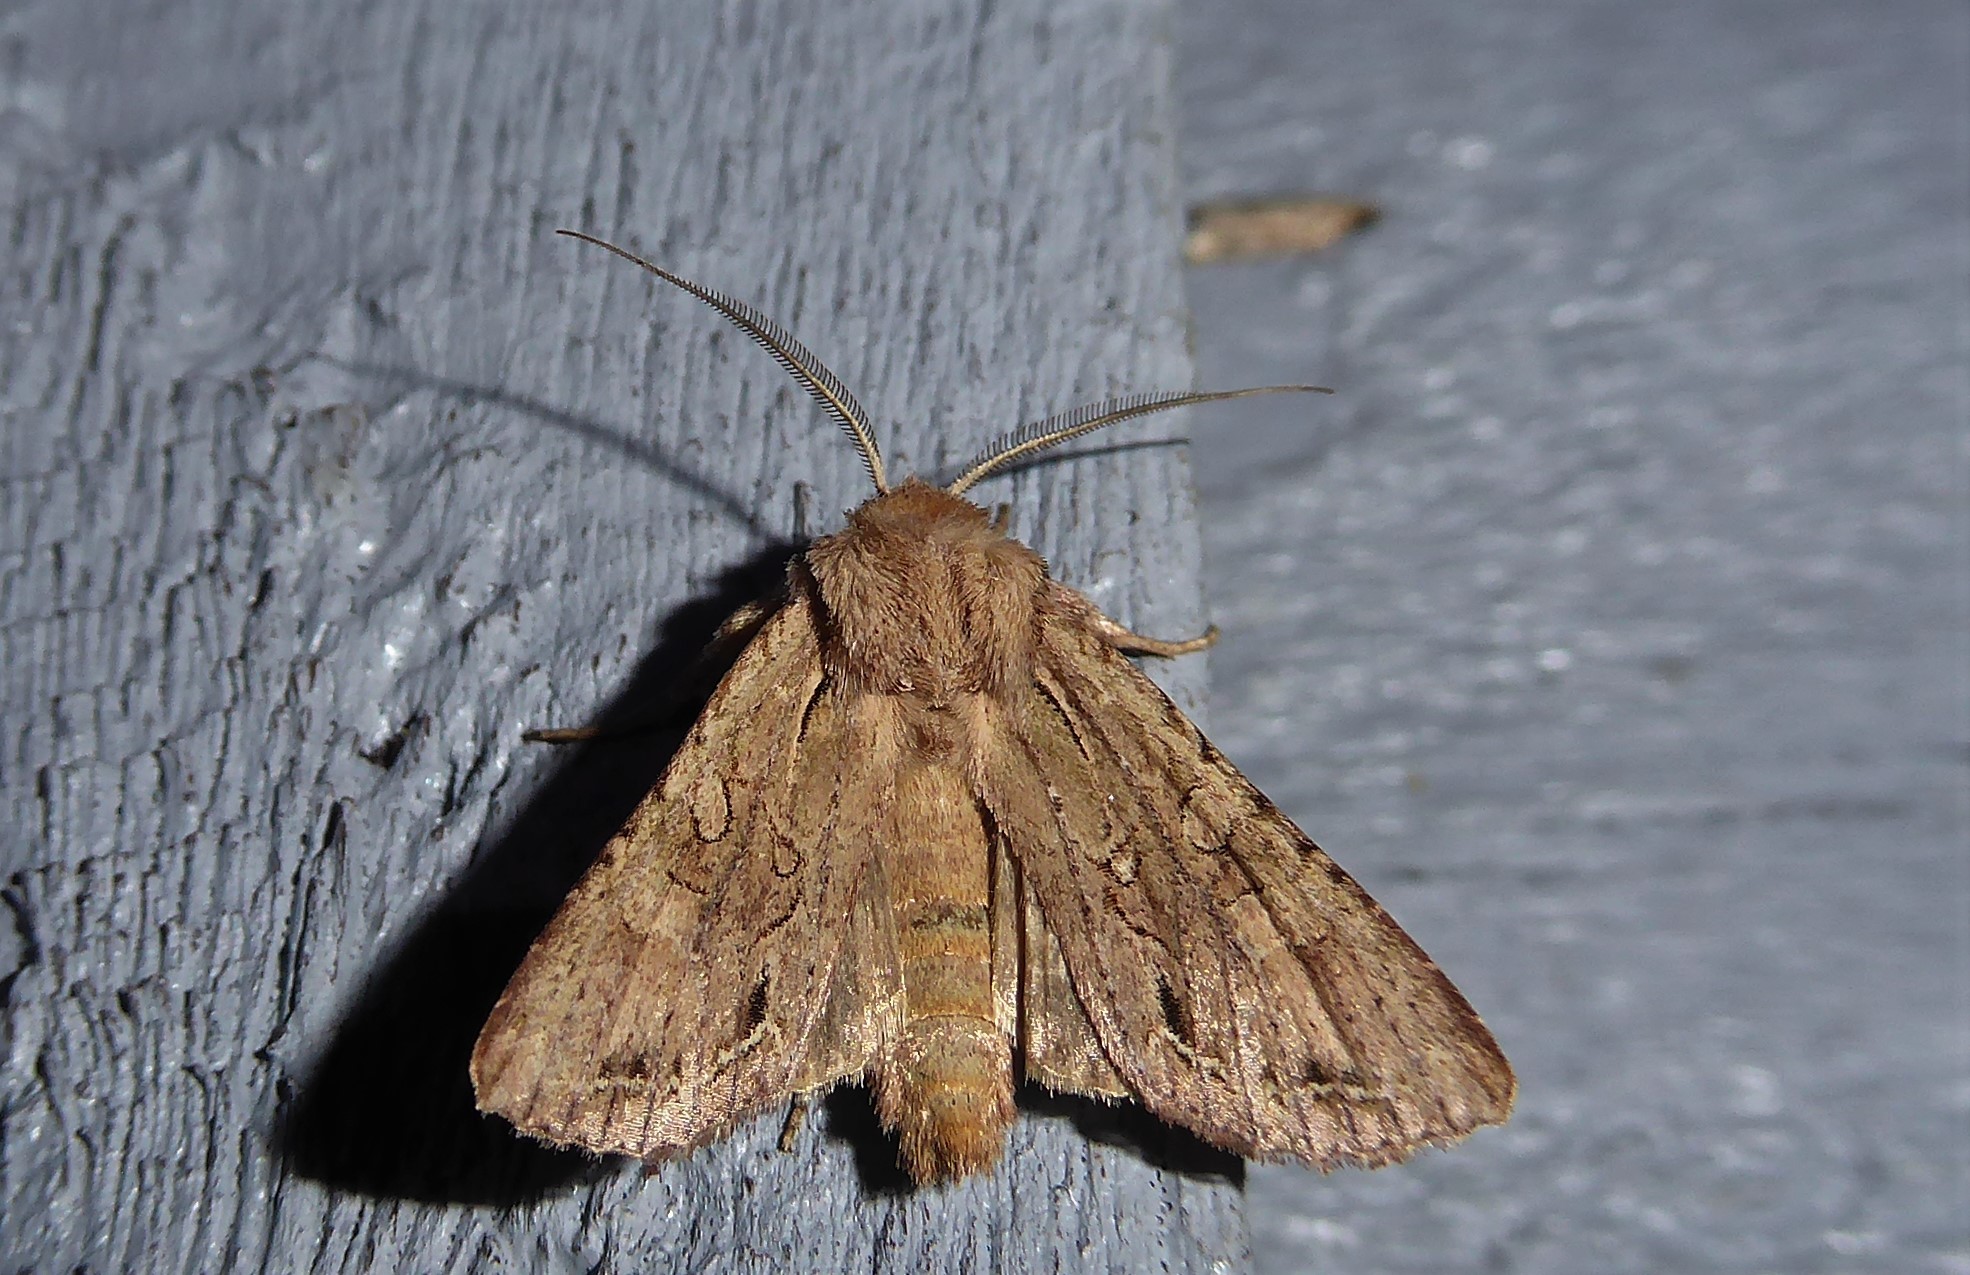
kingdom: Animalia
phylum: Arthropoda
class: Insecta
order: Lepidoptera
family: Noctuidae
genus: Ichneutica
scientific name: Ichneutica
